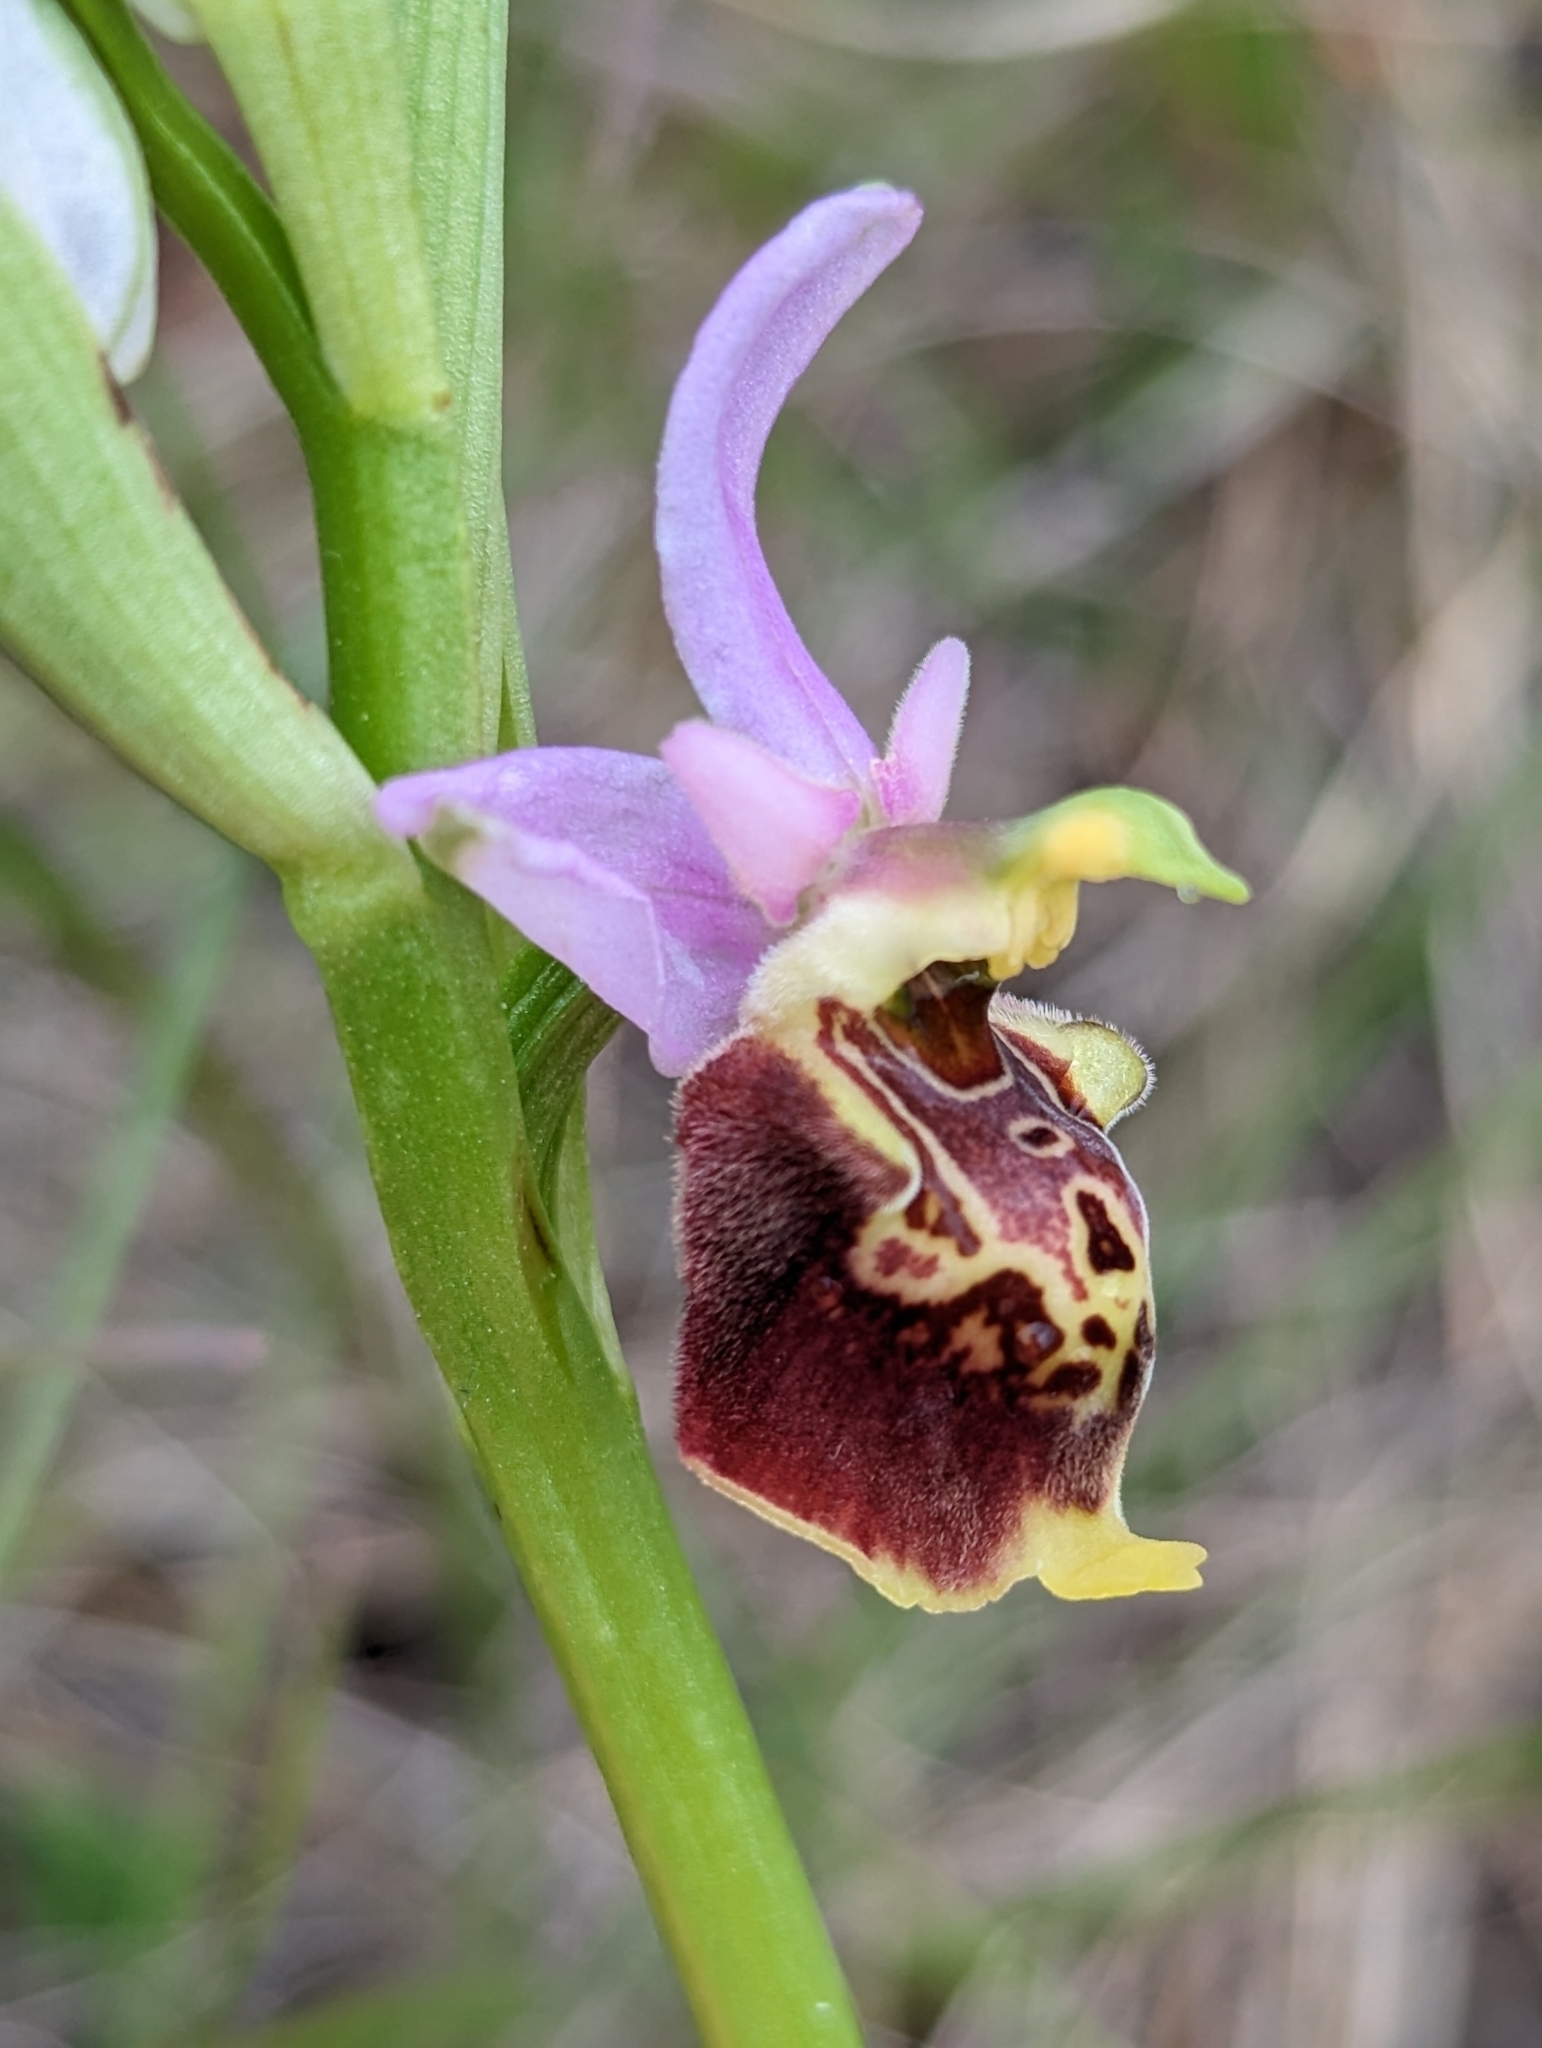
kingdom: Plantae
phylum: Tracheophyta
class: Liliopsida
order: Asparagales
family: Orchidaceae
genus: Ophrys
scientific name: Ophrys holosericea
